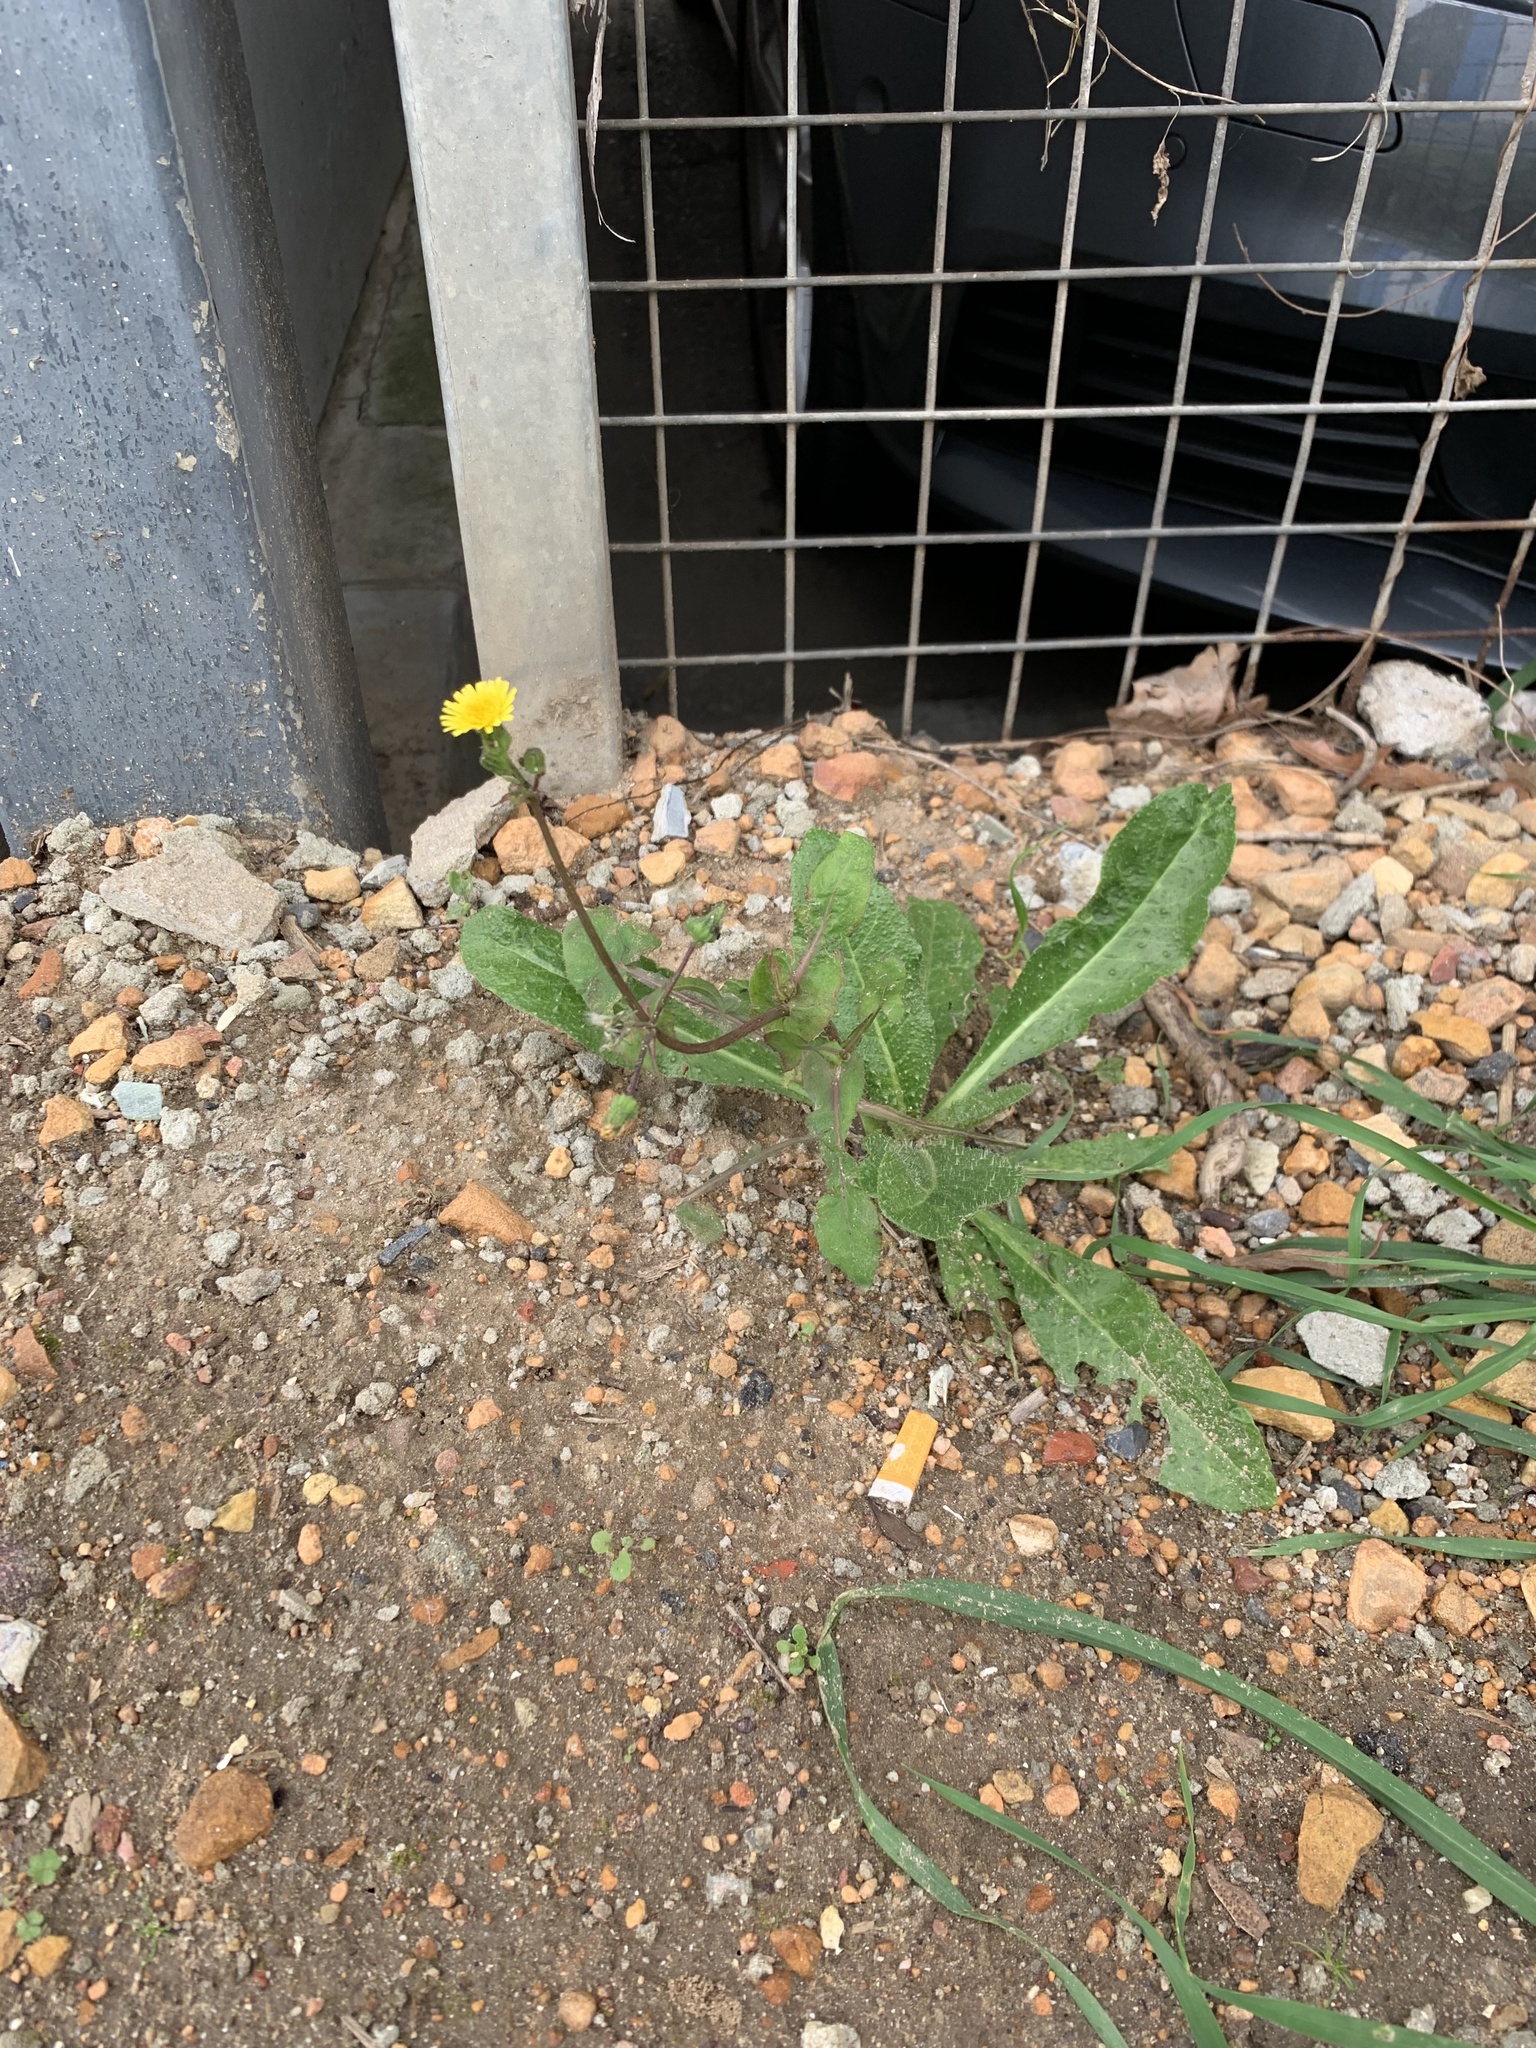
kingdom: Plantae
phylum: Tracheophyta
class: Magnoliopsida
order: Asterales
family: Asteraceae
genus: Hypochaeris
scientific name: Hypochaeris radicata
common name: Flatweed
